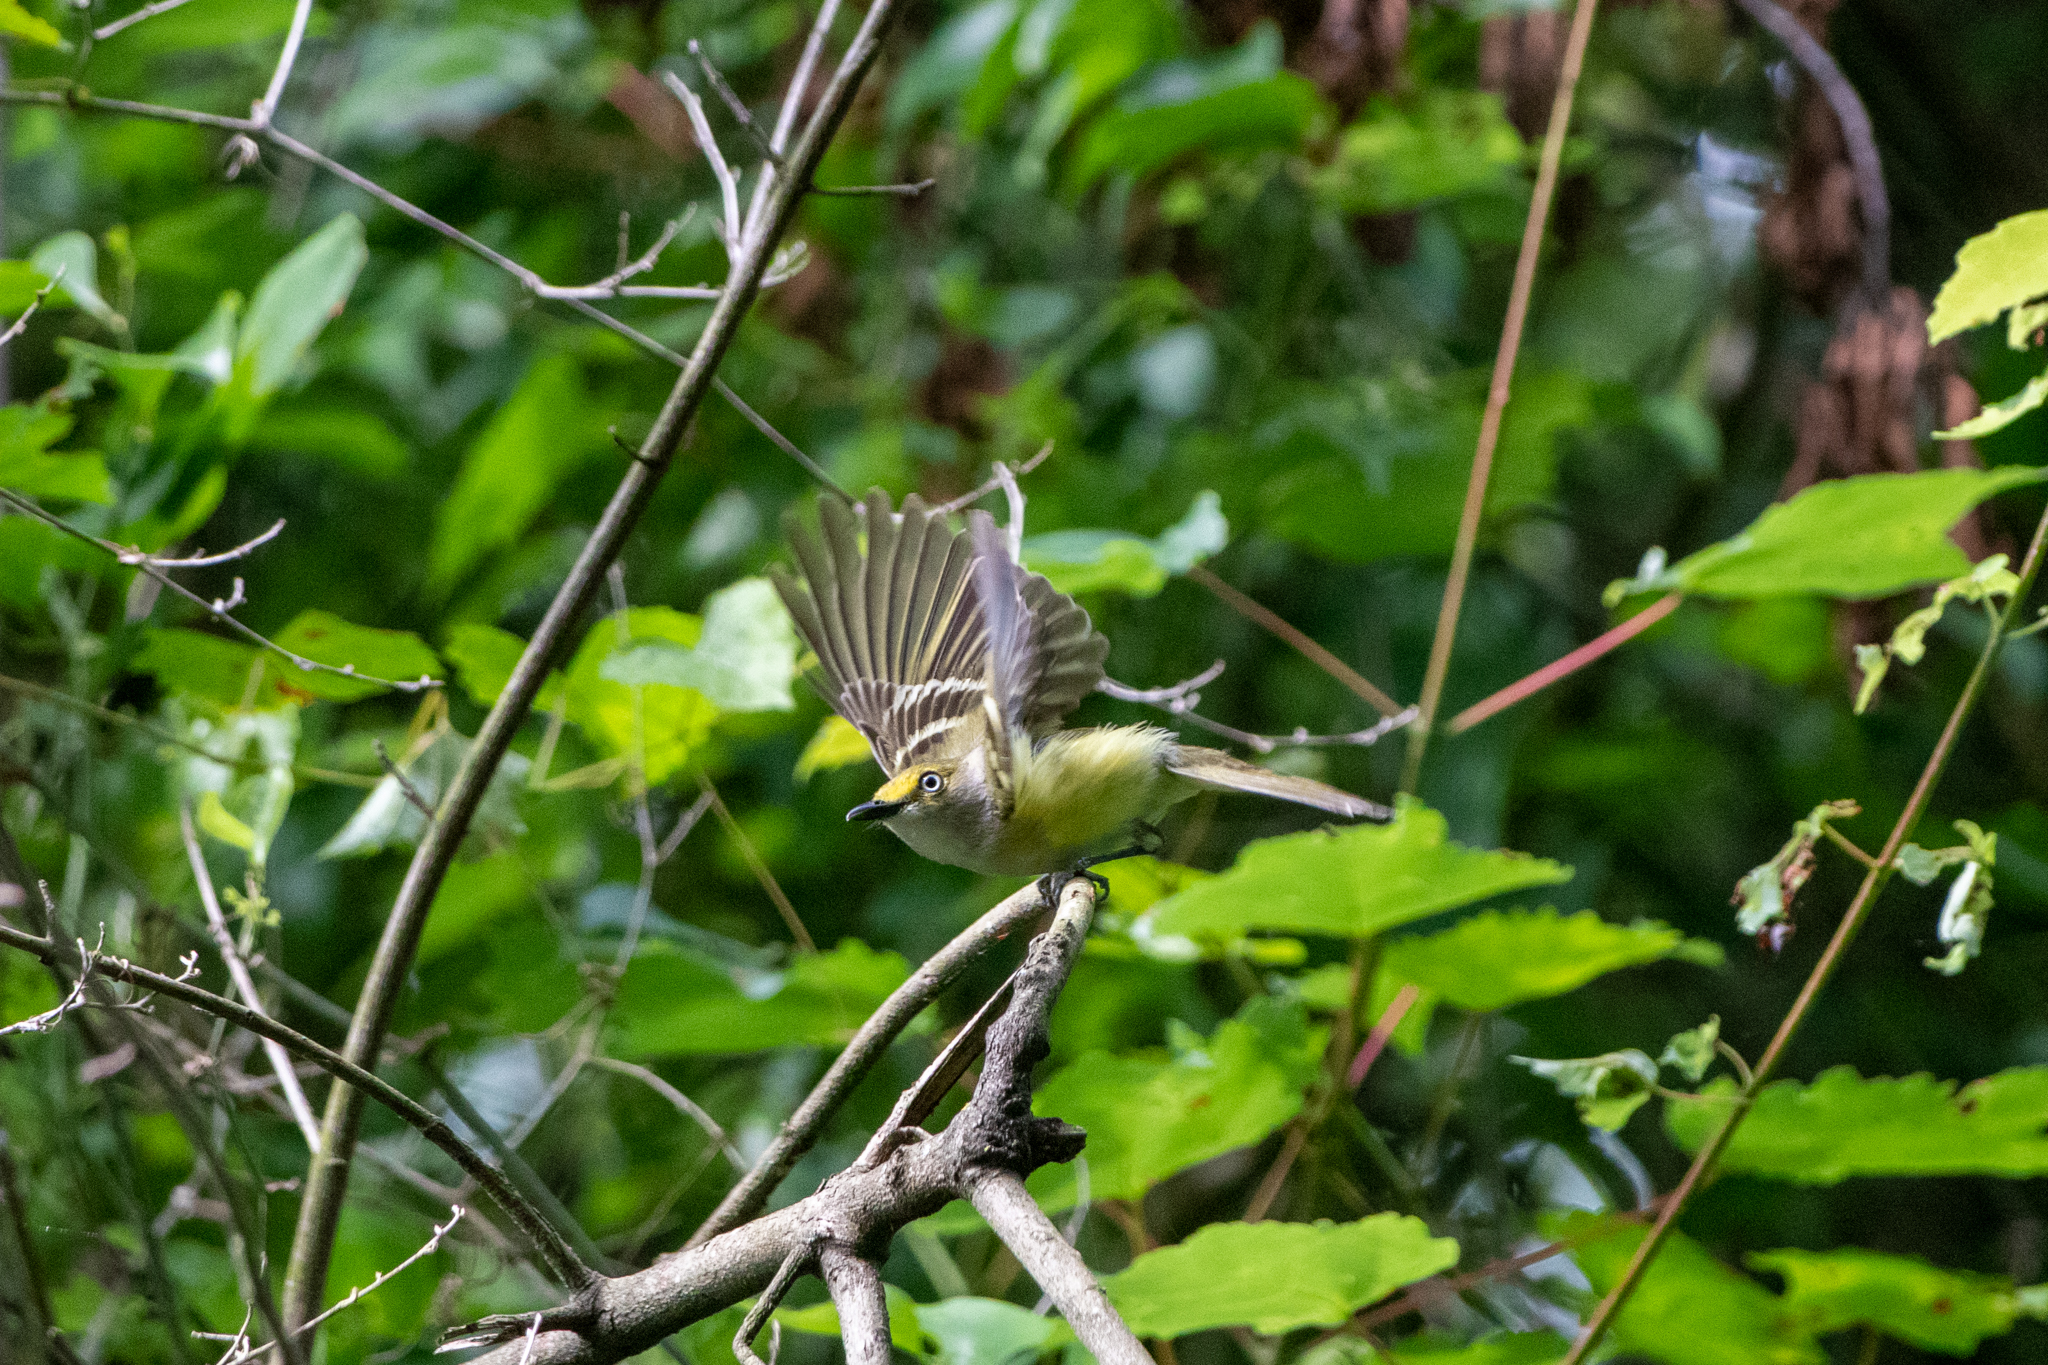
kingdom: Animalia
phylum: Chordata
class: Aves
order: Passeriformes
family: Vireonidae
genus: Vireo
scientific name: Vireo griseus
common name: White-eyed vireo
